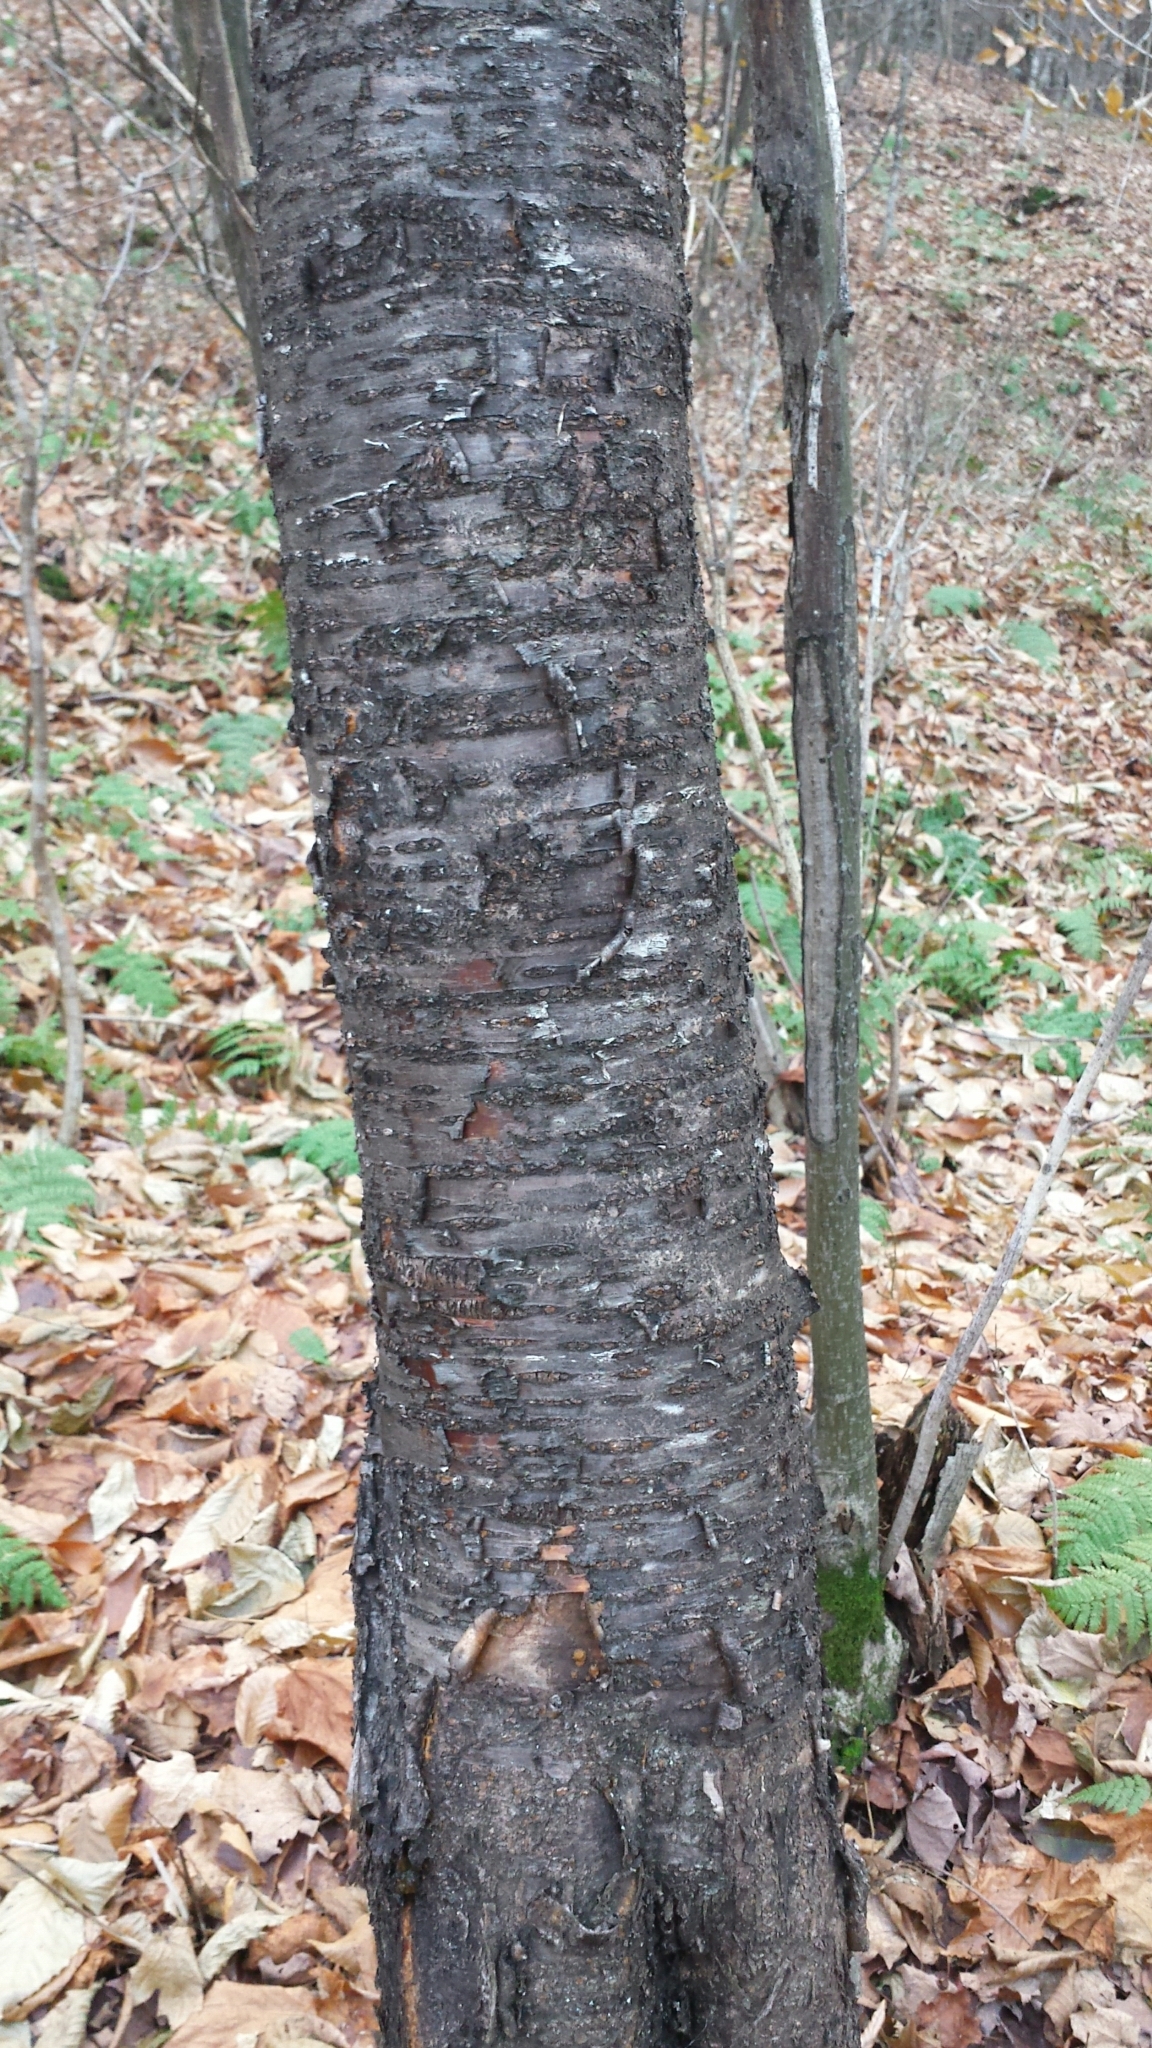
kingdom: Plantae
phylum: Tracheophyta
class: Magnoliopsida
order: Rosales
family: Rosaceae
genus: Prunus
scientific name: Prunus pensylvanica
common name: Pin cherry
